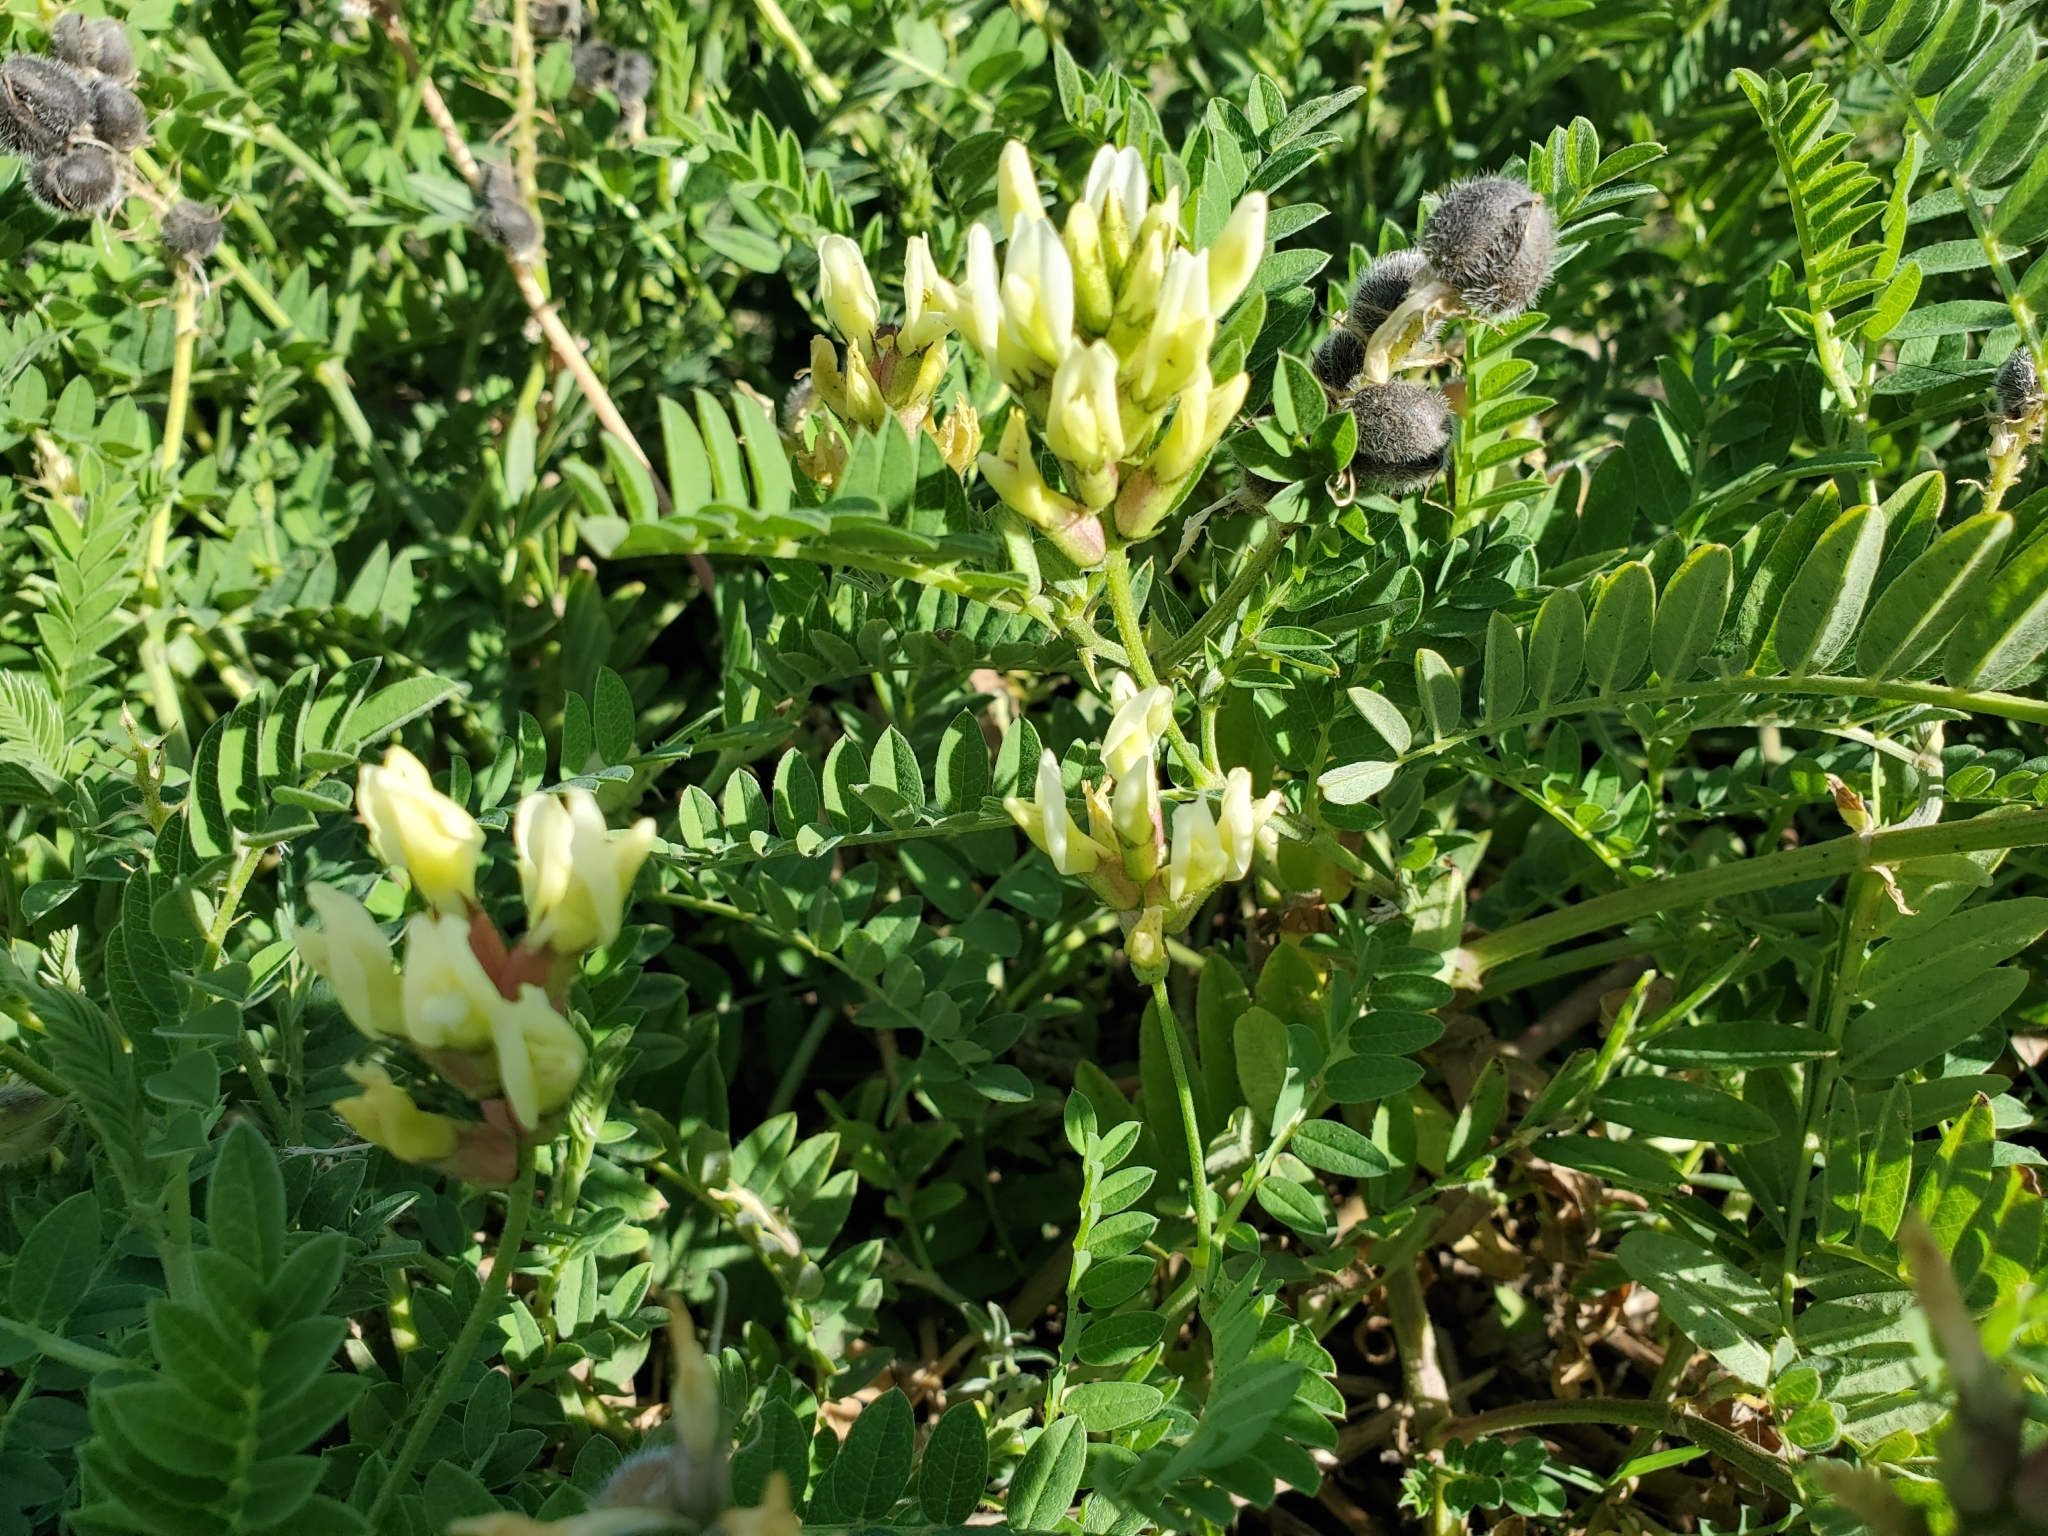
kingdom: Plantae
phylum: Tracheophyta
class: Magnoliopsida
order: Fabales
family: Fabaceae
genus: Astragalus
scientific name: Astragalus cicer
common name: Chick-pea milk-vetch
